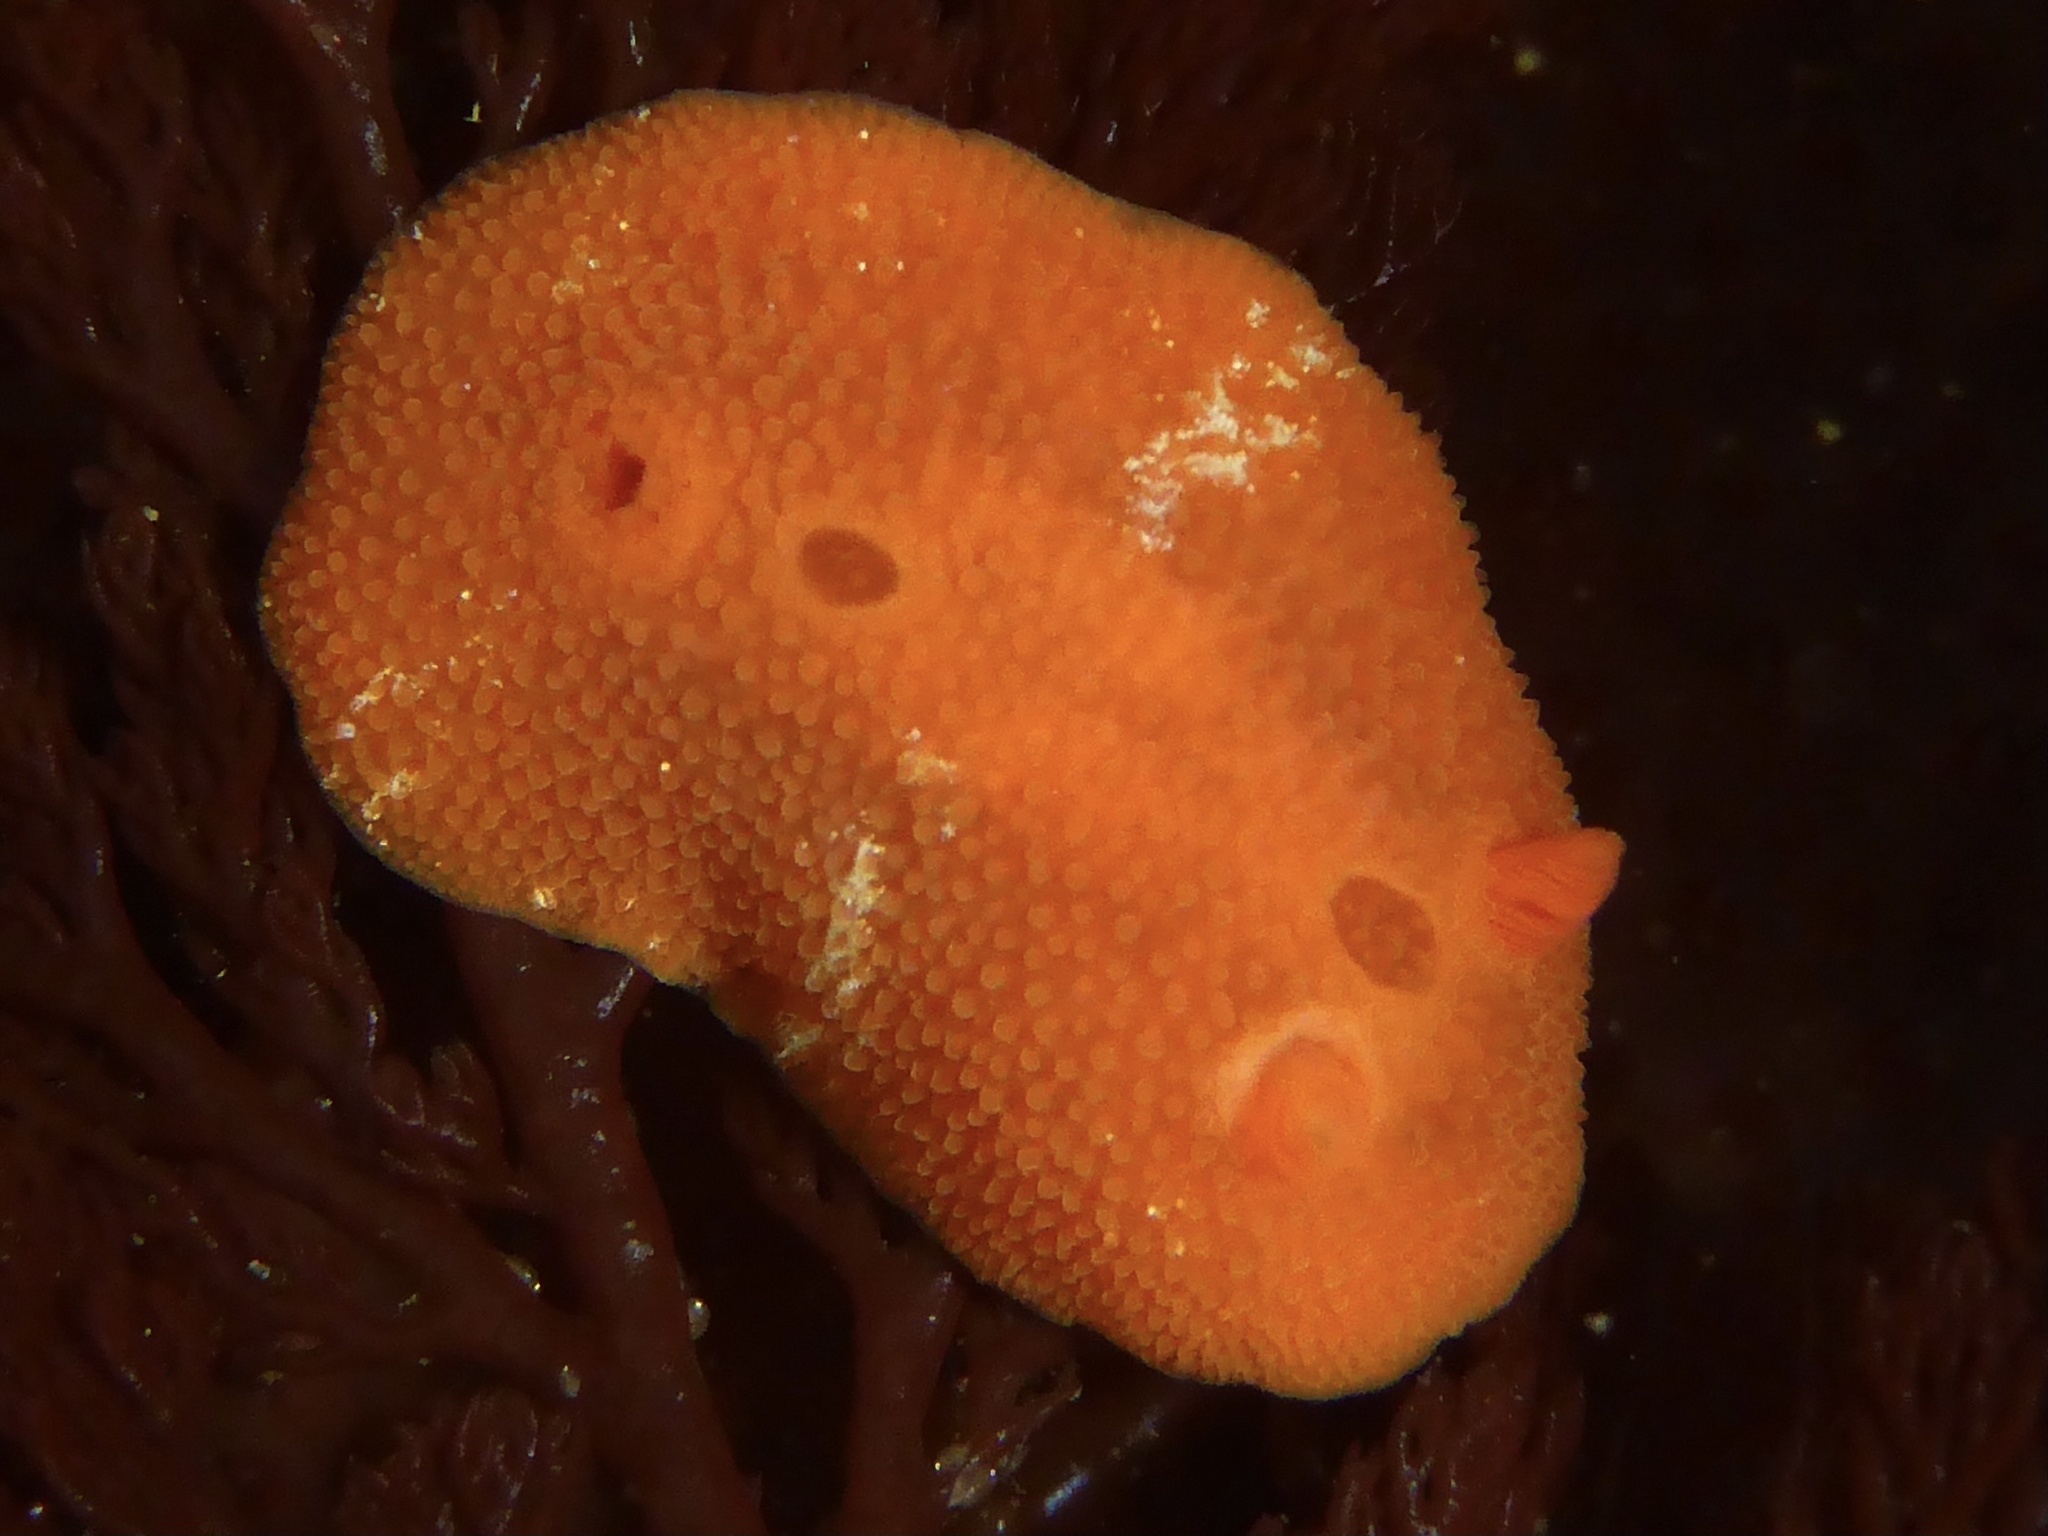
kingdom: Animalia
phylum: Mollusca
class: Gastropoda
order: Nudibranchia
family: Cadlinidae
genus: Aldisa
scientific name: Aldisa sanguinea
